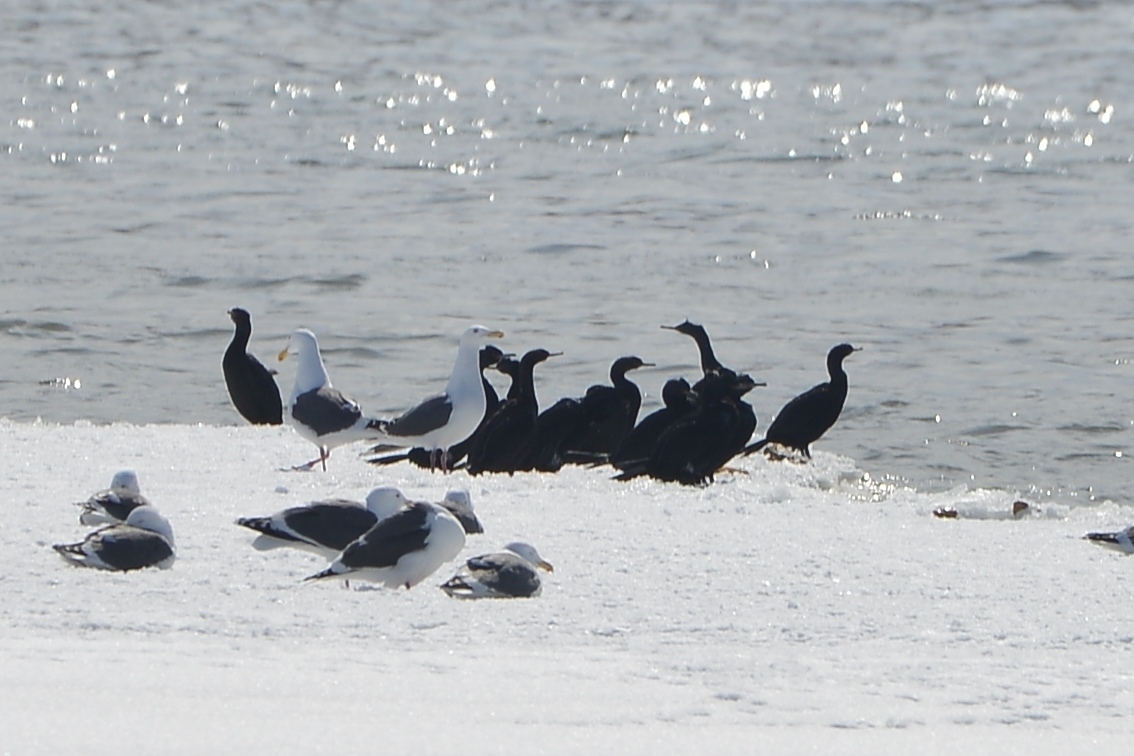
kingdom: Animalia
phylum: Chordata
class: Aves
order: Suliformes
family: Phalacrocoracidae
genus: Phalacrocorax
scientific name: Phalacrocorax pelagicus
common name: Pelagic cormorant
